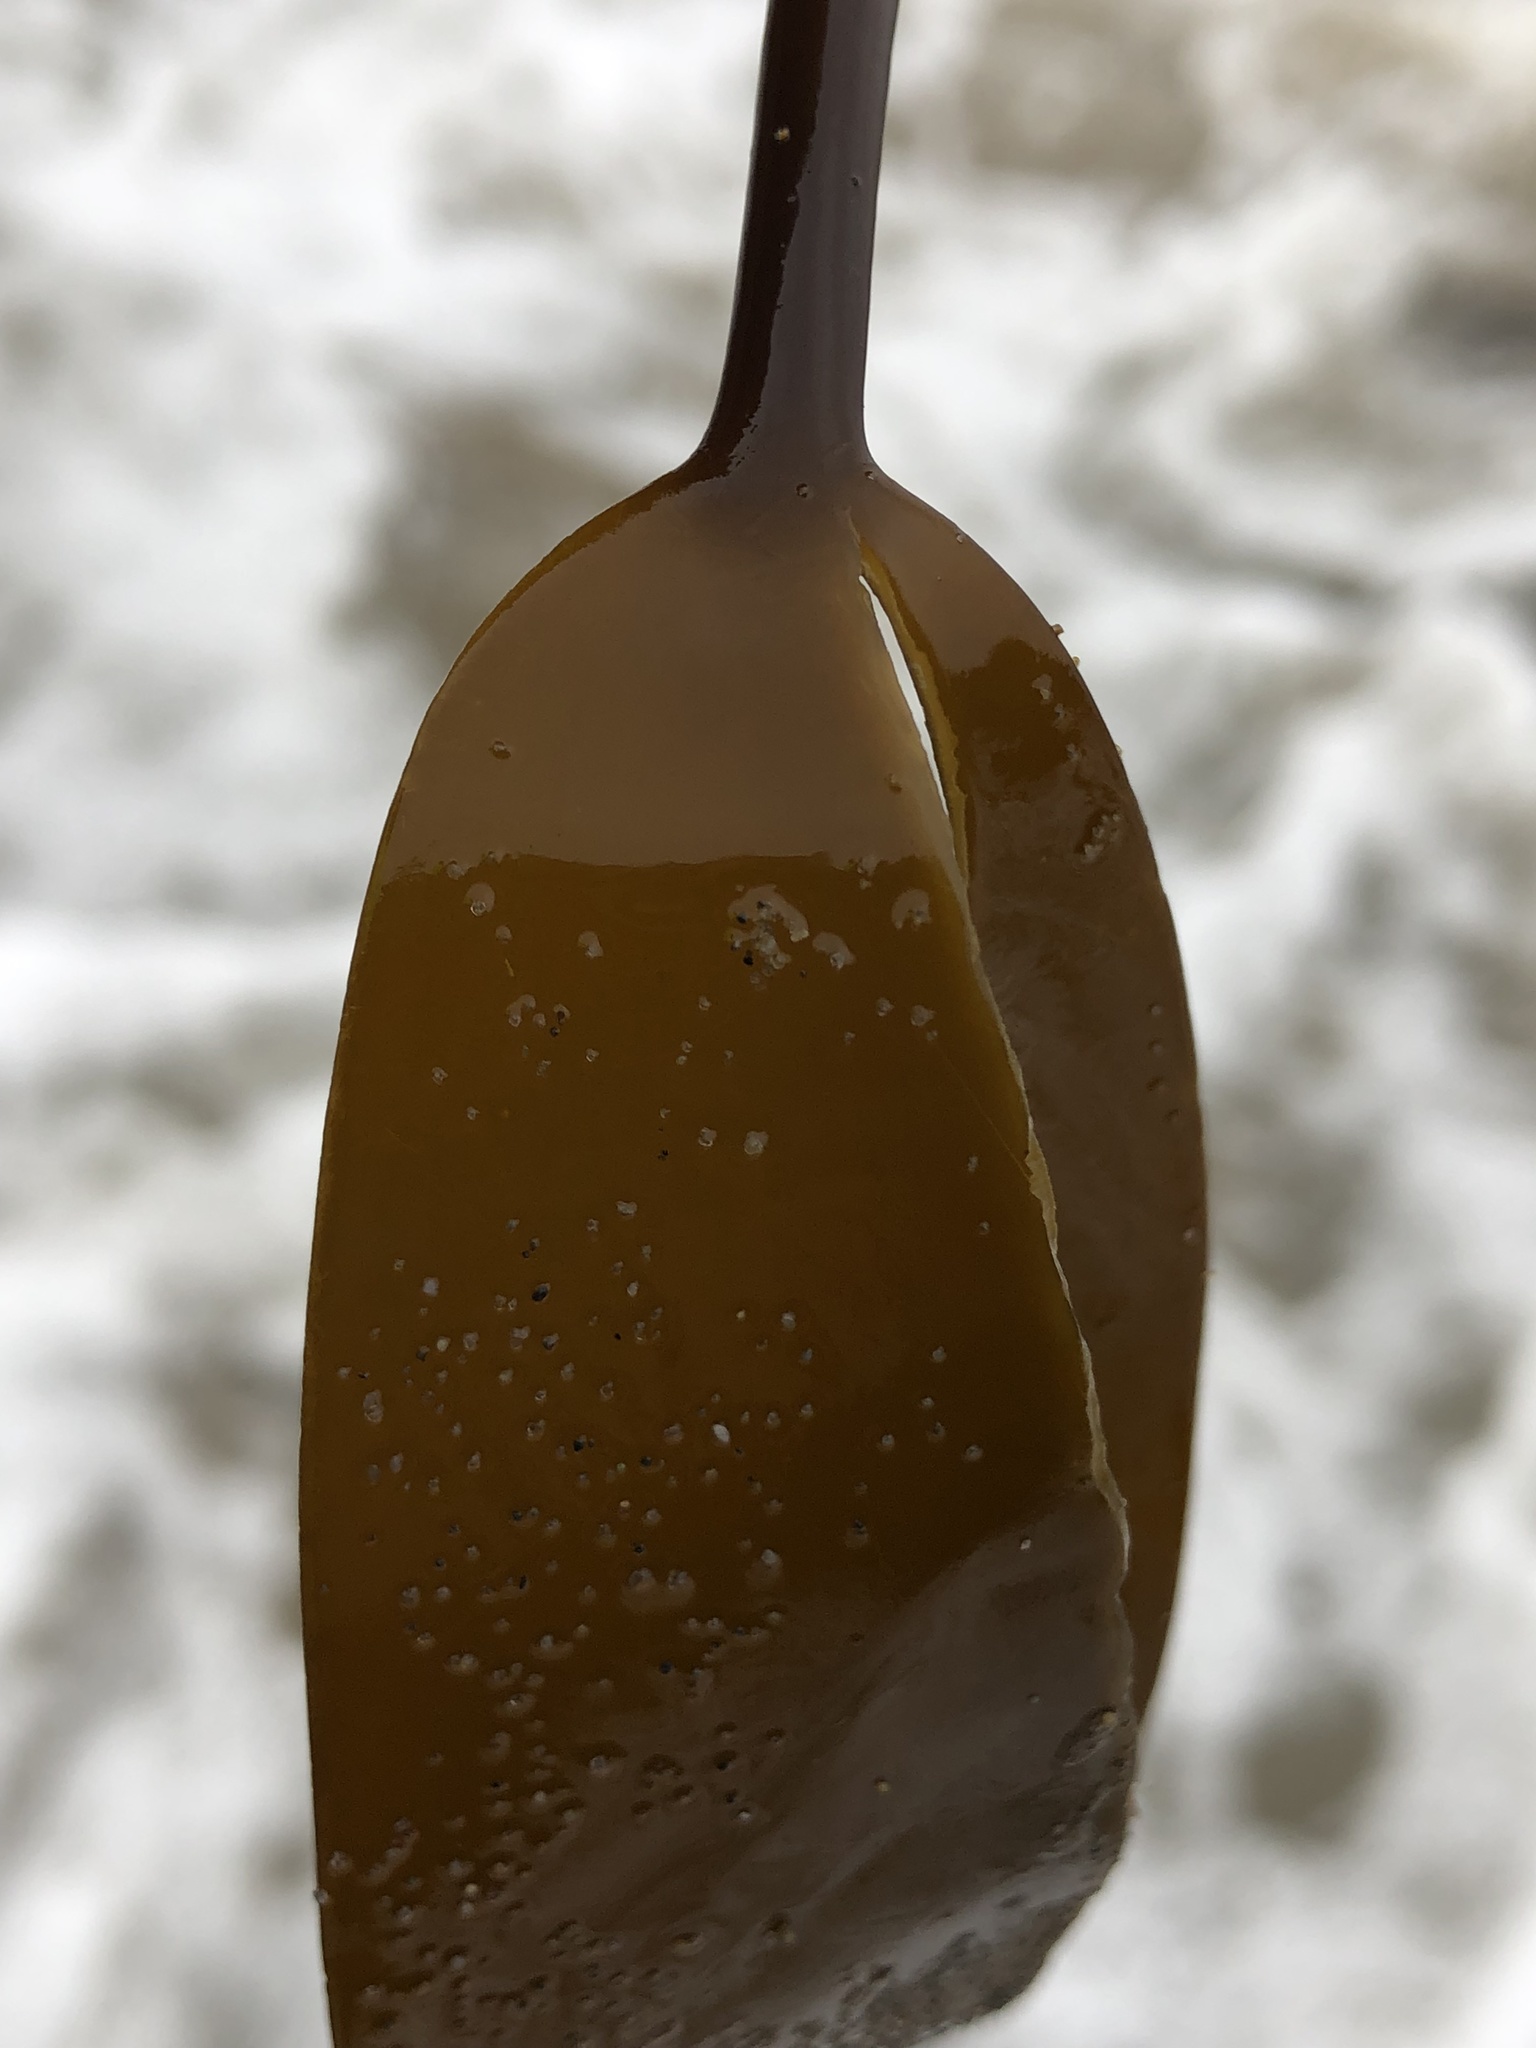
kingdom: Chromista
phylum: Ochrophyta
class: Phaeophyceae
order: Laminariales
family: Laminariaceae
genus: Laminaria
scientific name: Laminaria setchellii
